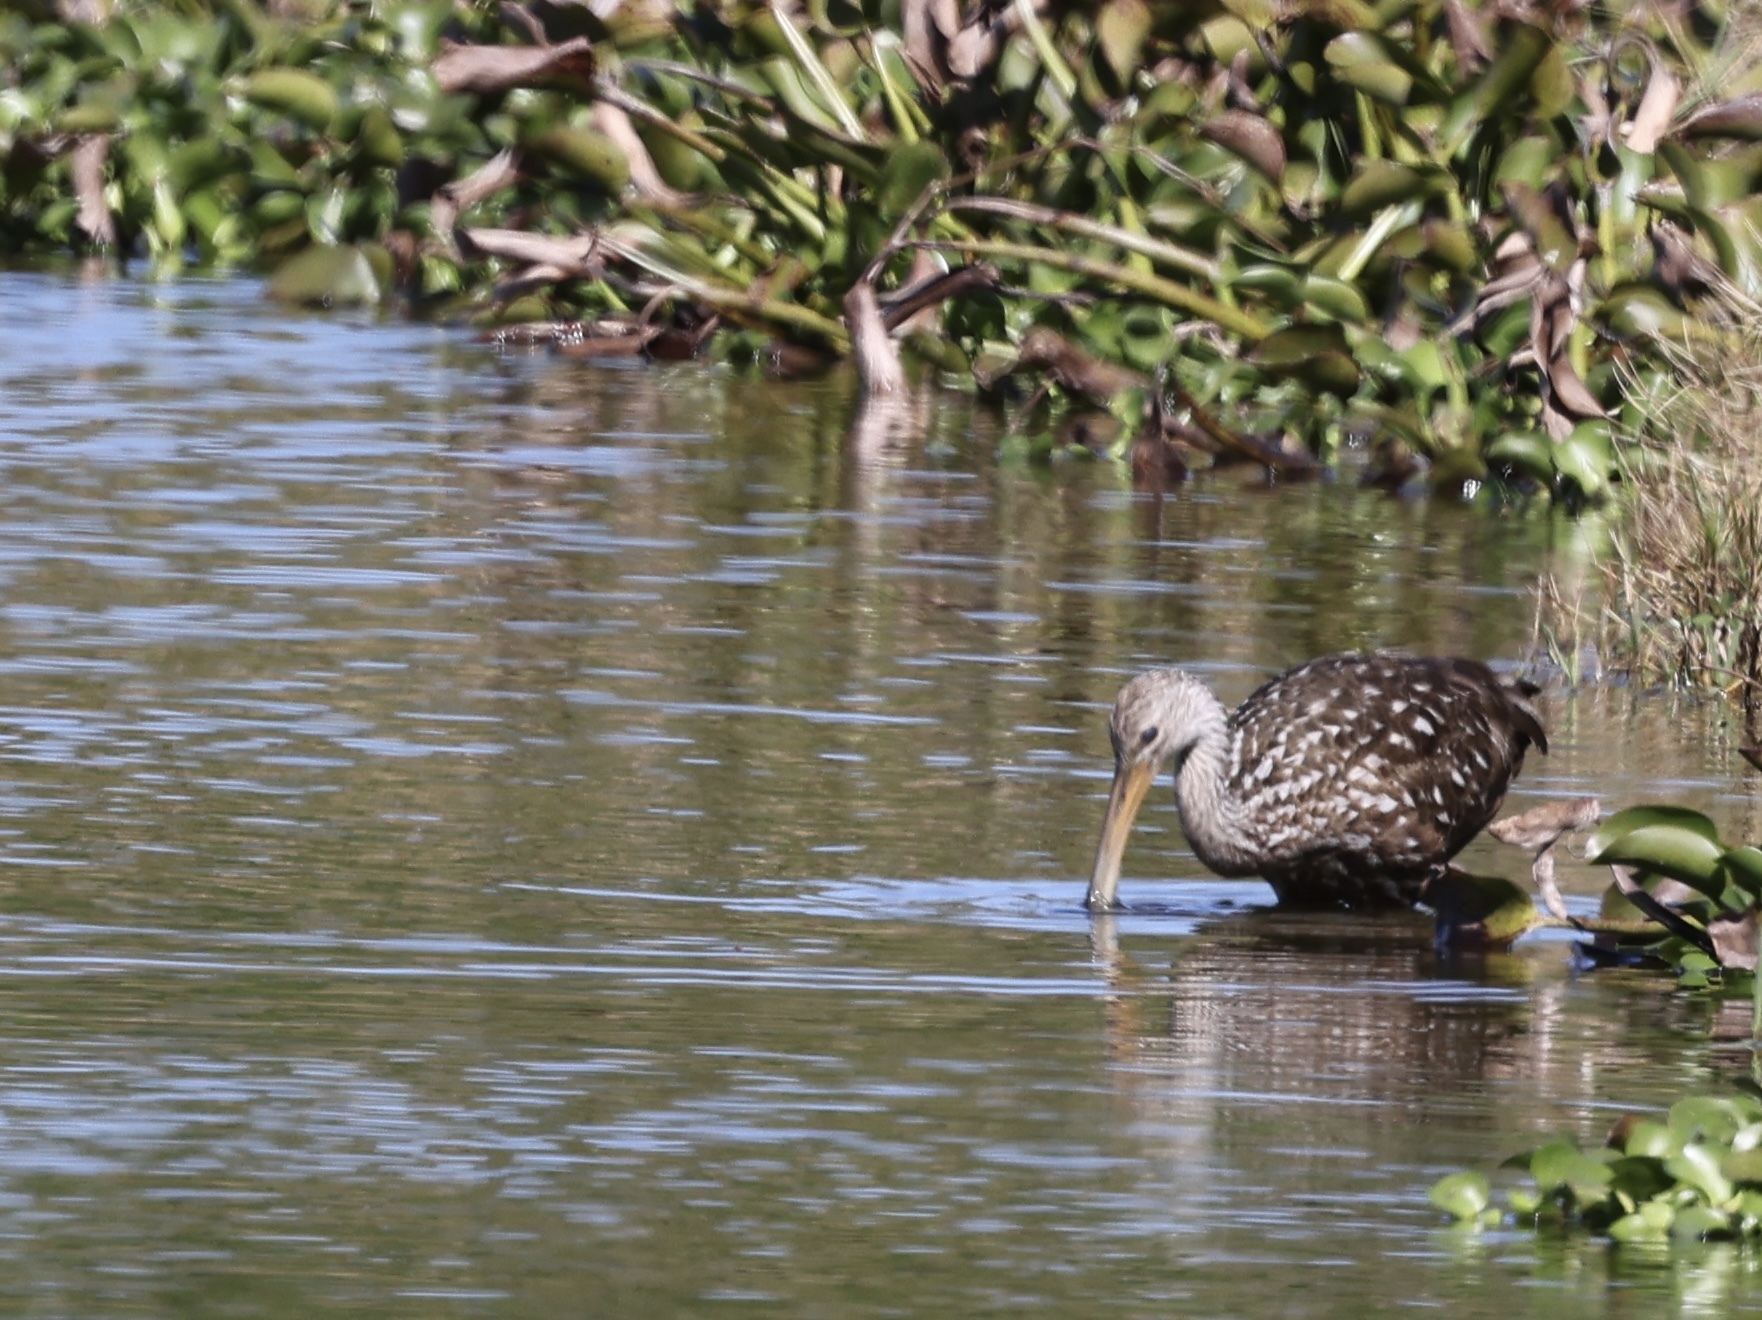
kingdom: Animalia
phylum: Chordata
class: Aves
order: Gruiformes
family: Aramidae
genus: Aramus
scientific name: Aramus guarauna
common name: Limpkin
